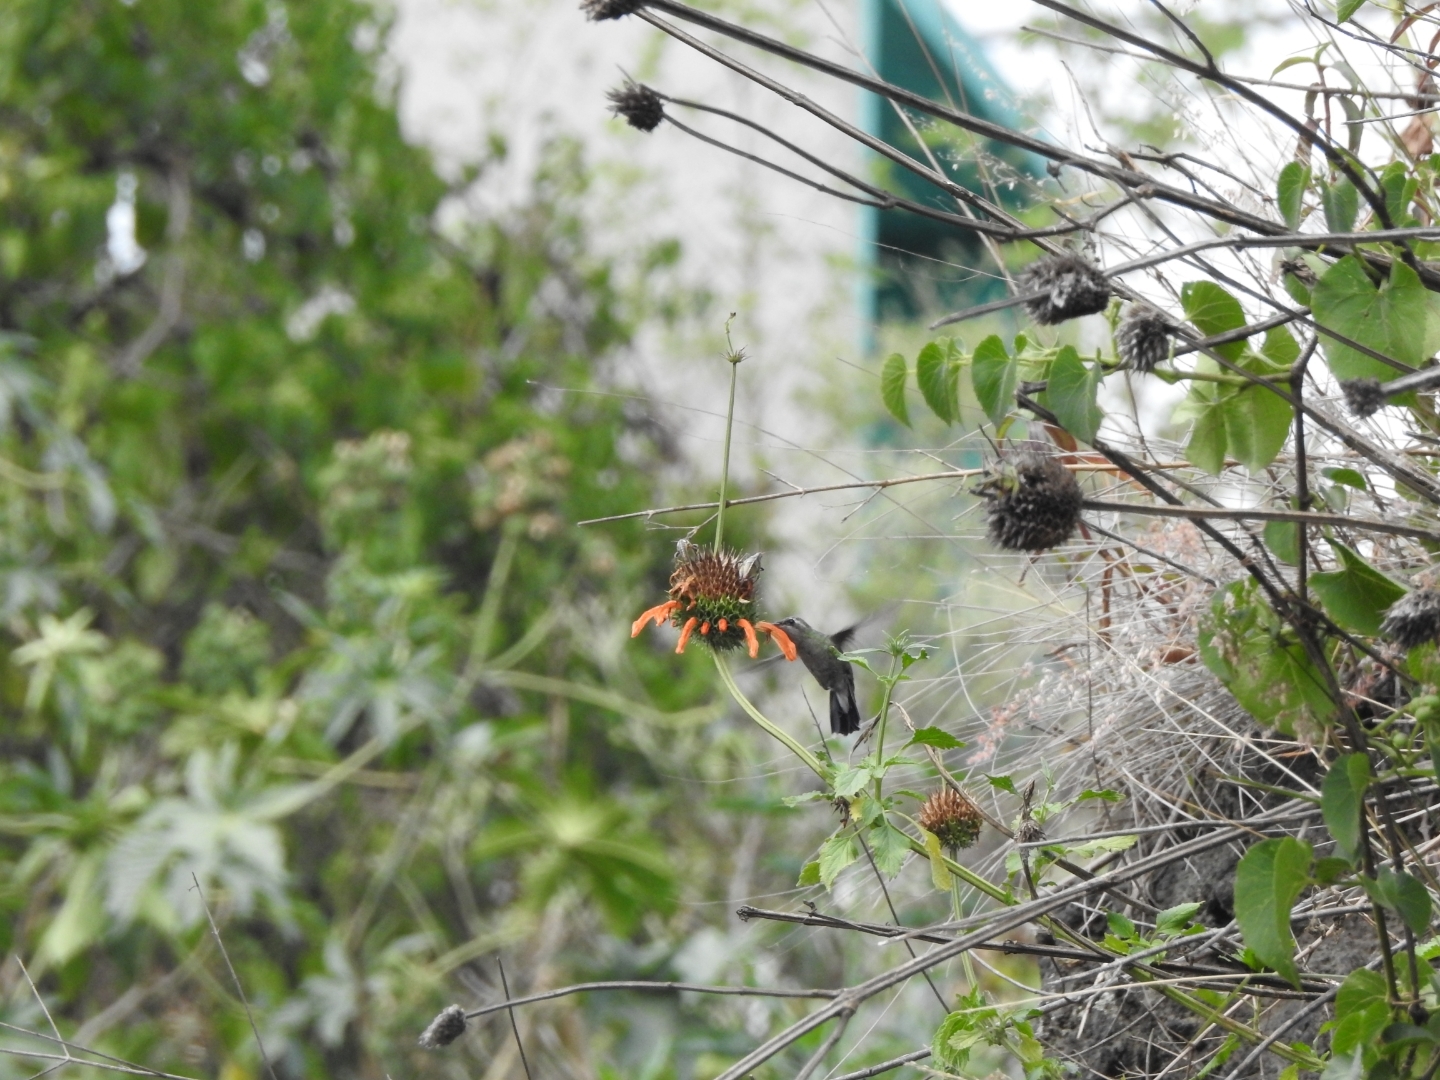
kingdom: Animalia
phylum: Chordata
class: Aves
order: Apodiformes
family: Trochilidae
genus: Cynanthus
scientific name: Cynanthus latirostris
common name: Broad-billed hummingbird
